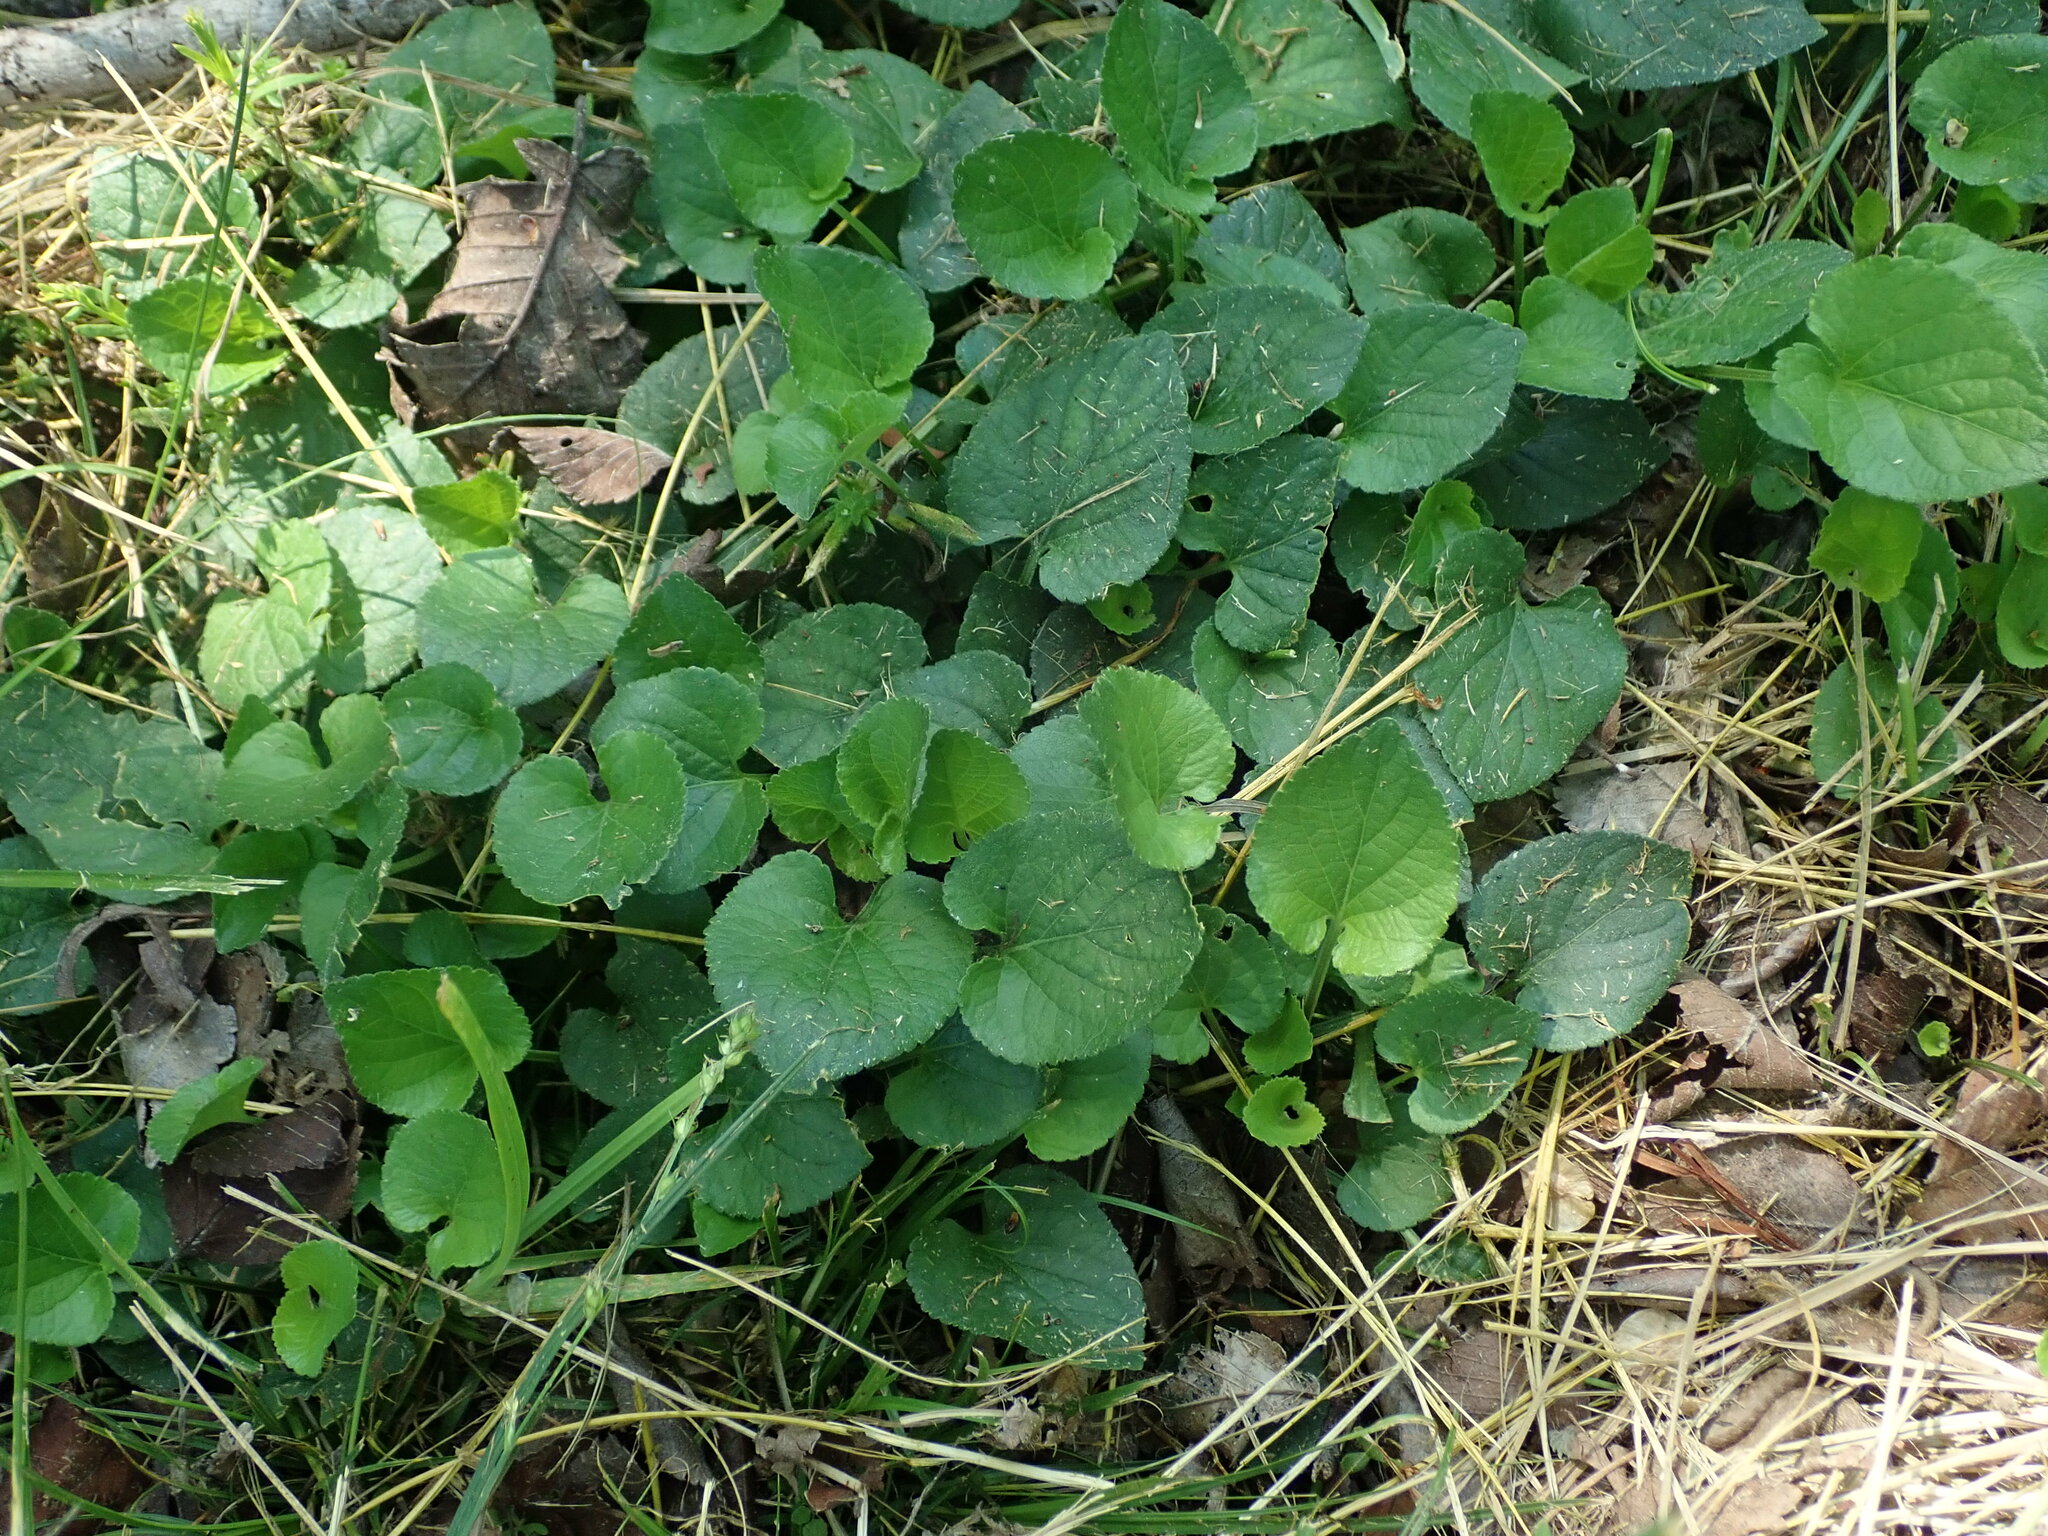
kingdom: Plantae
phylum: Tracheophyta
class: Magnoliopsida
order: Malpighiales
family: Violaceae
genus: Viola
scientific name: Viola odorata
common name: Sweet violet
